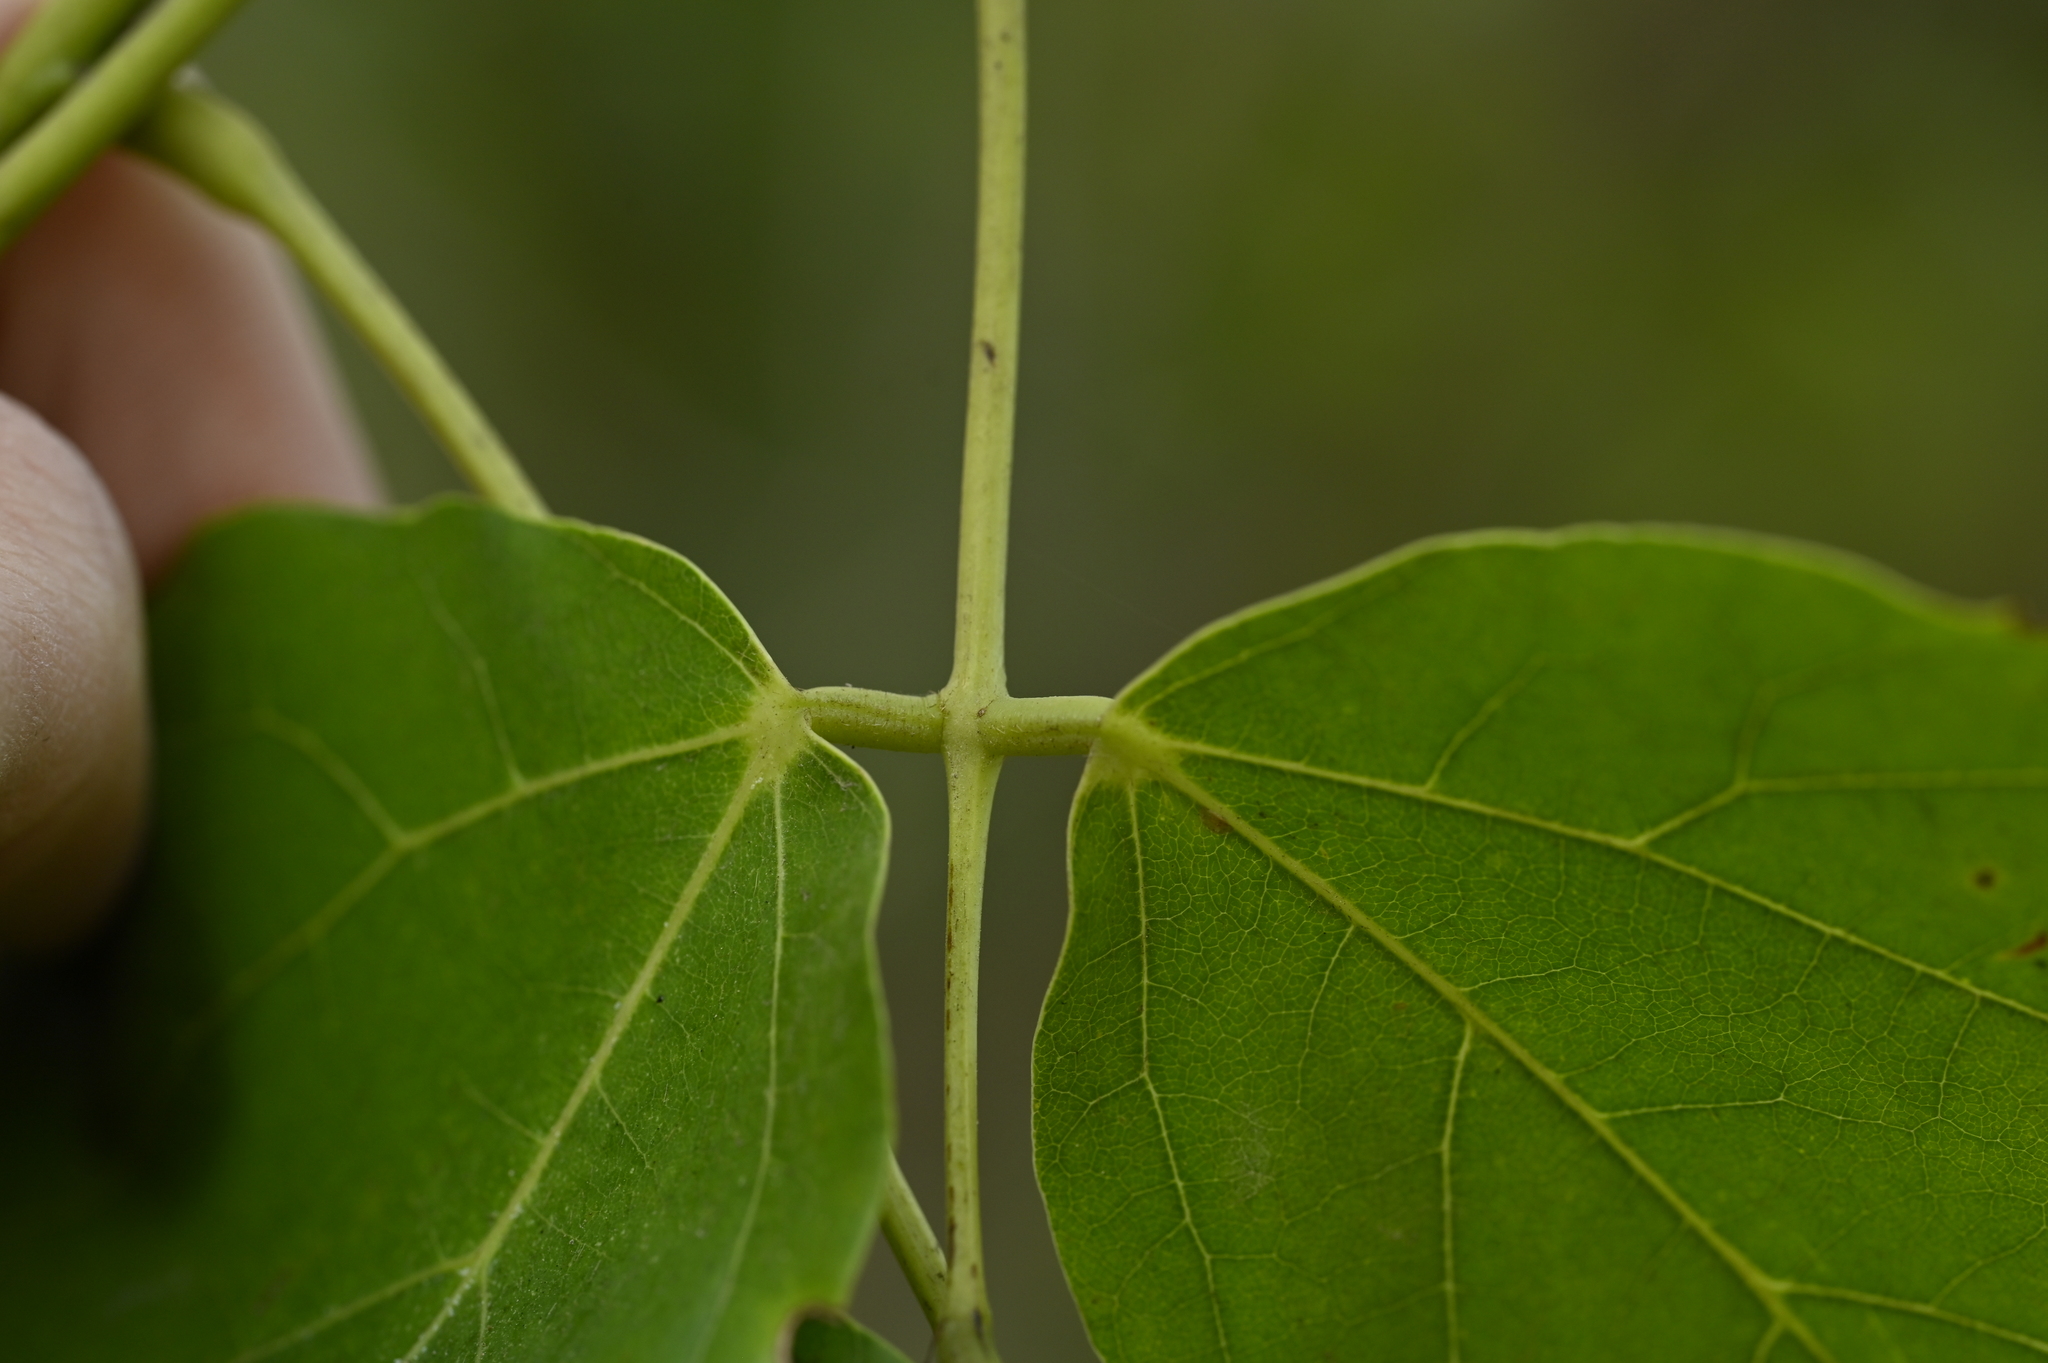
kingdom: Plantae
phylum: Tracheophyta
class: Magnoliopsida
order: Fabales
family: Fabaceae
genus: Mucuna
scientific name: Mucuna gigantea
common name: Black-bean
